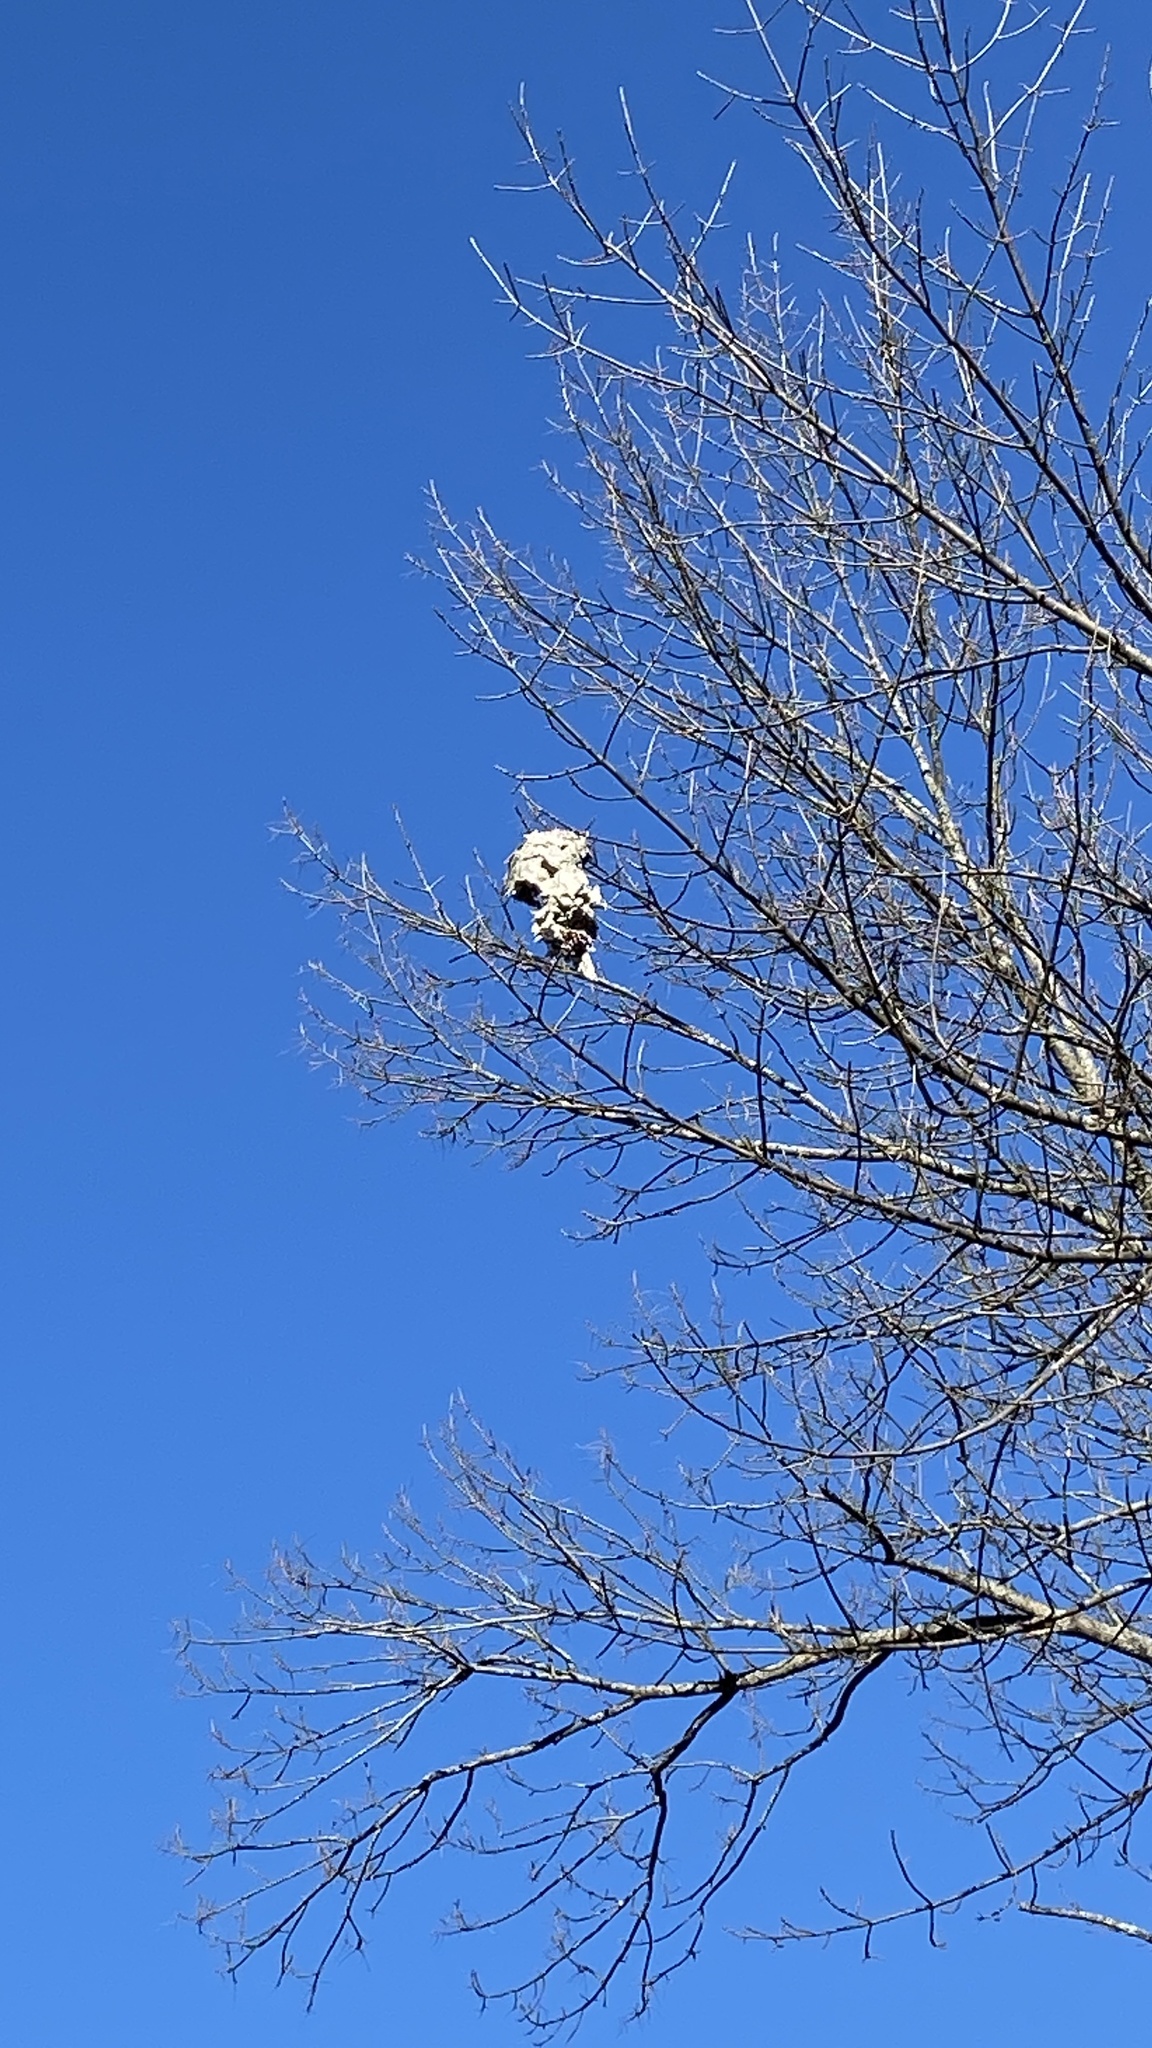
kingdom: Animalia
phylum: Arthropoda
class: Insecta
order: Hymenoptera
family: Vespidae
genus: Dolichovespula
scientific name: Dolichovespula maculata
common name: Bald-faced hornet
